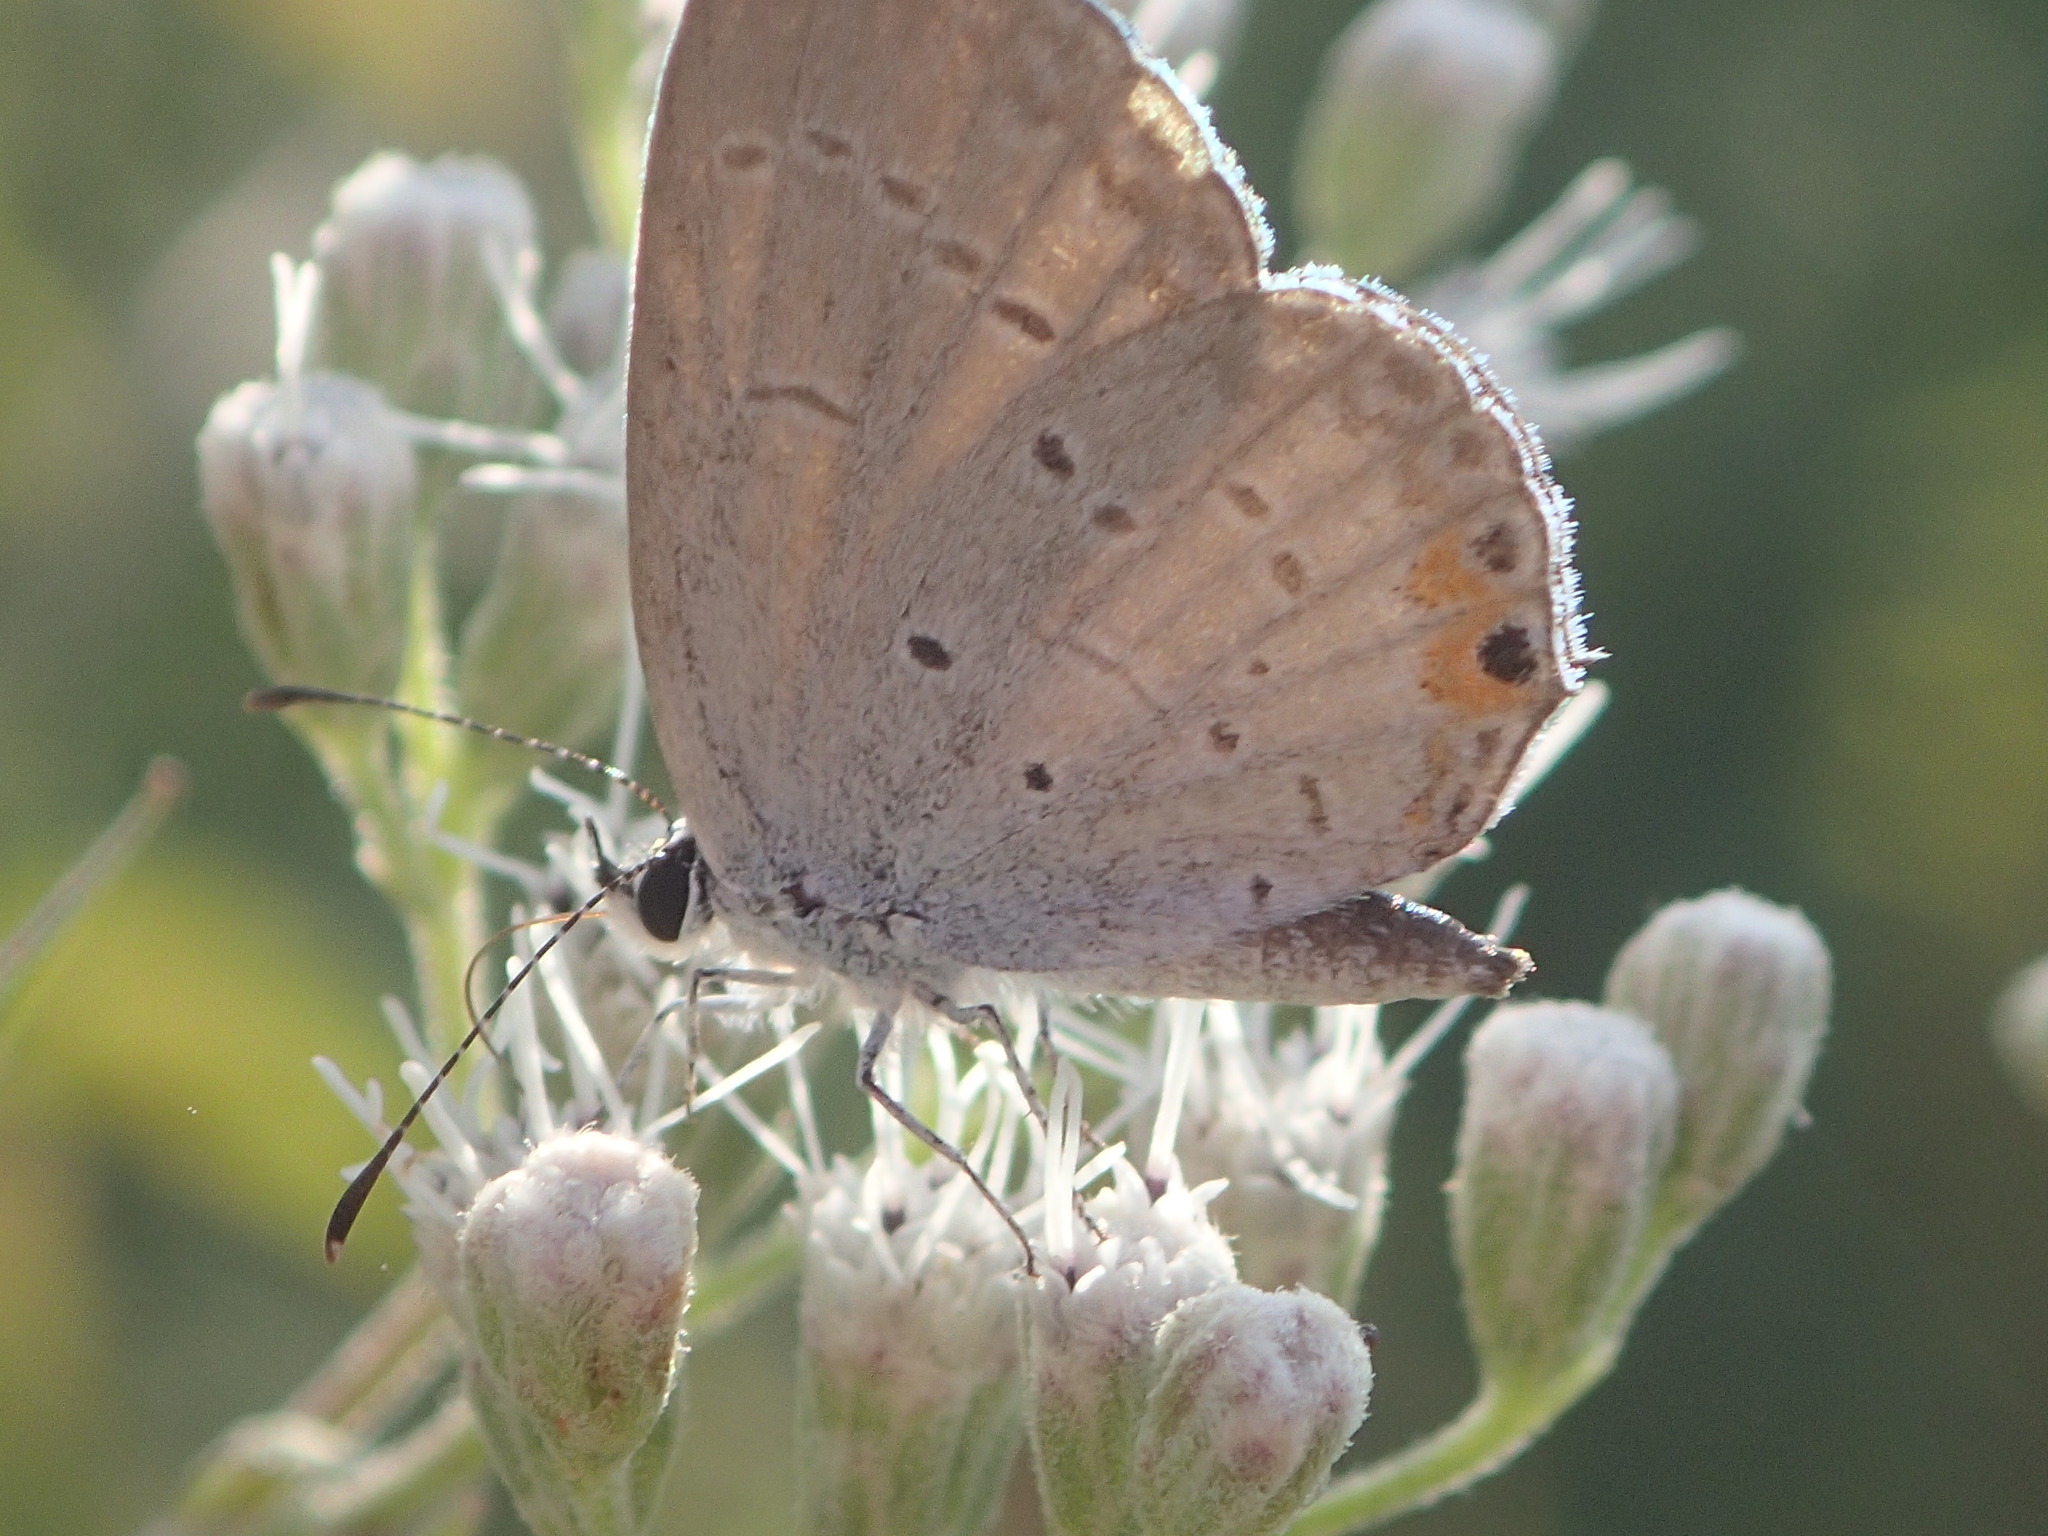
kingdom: Animalia
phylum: Arthropoda
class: Insecta
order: Lepidoptera
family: Lycaenidae
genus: Elkalyce
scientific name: Elkalyce comyntas
